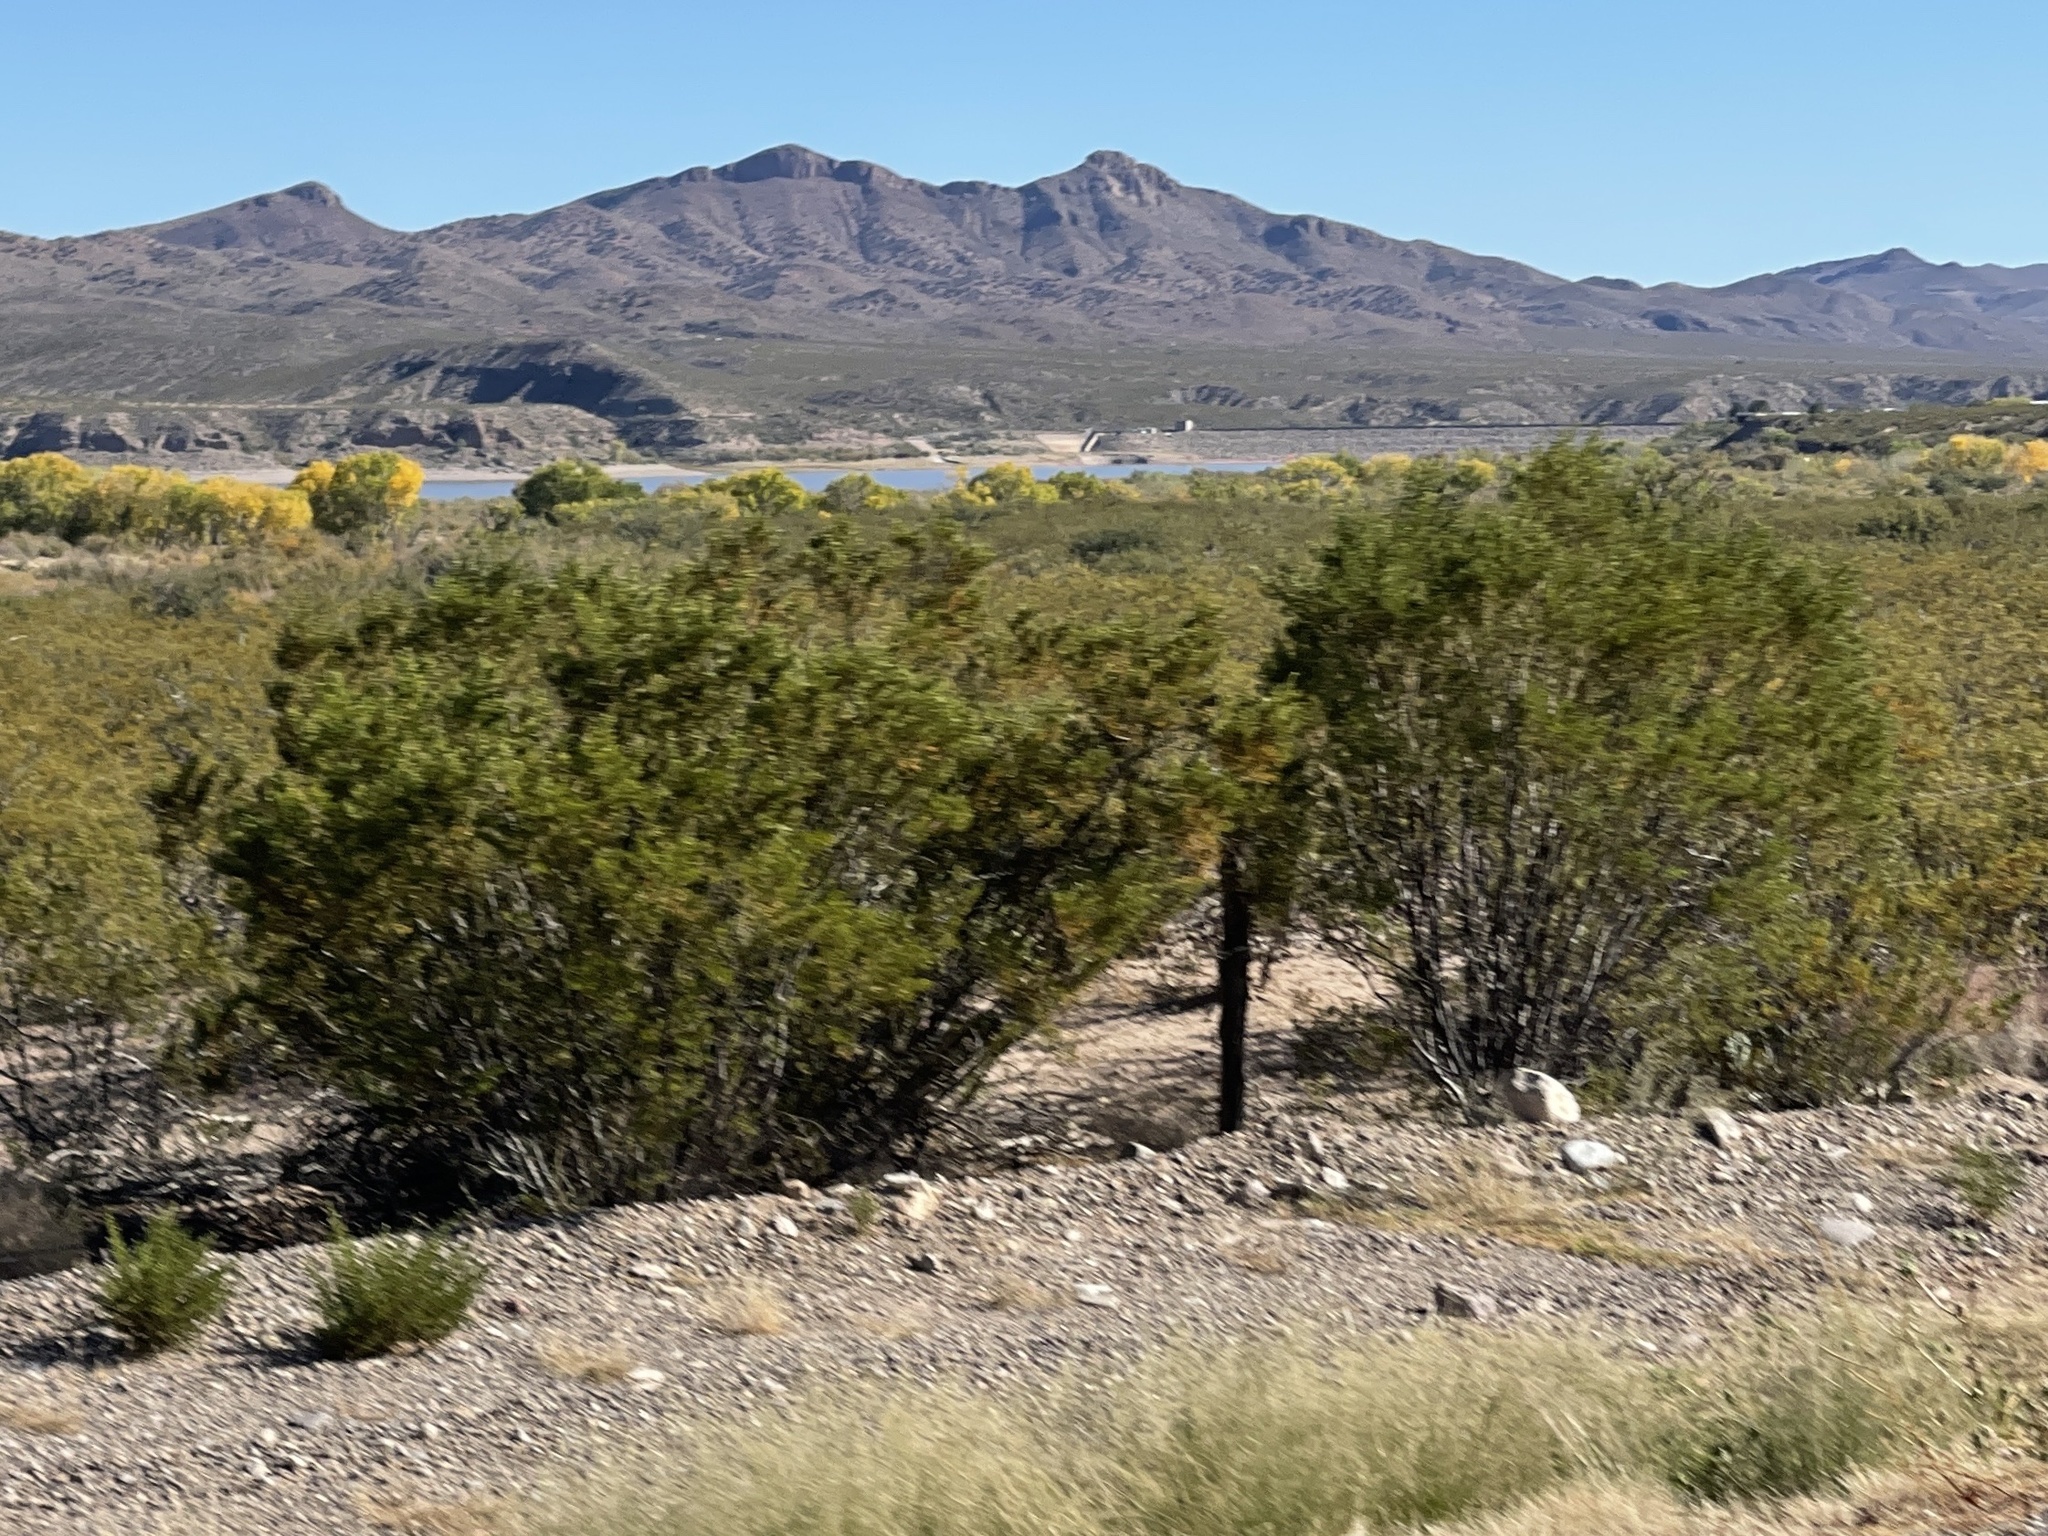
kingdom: Plantae
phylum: Tracheophyta
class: Magnoliopsida
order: Zygophyllales
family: Zygophyllaceae
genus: Larrea
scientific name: Larrea tridentata
